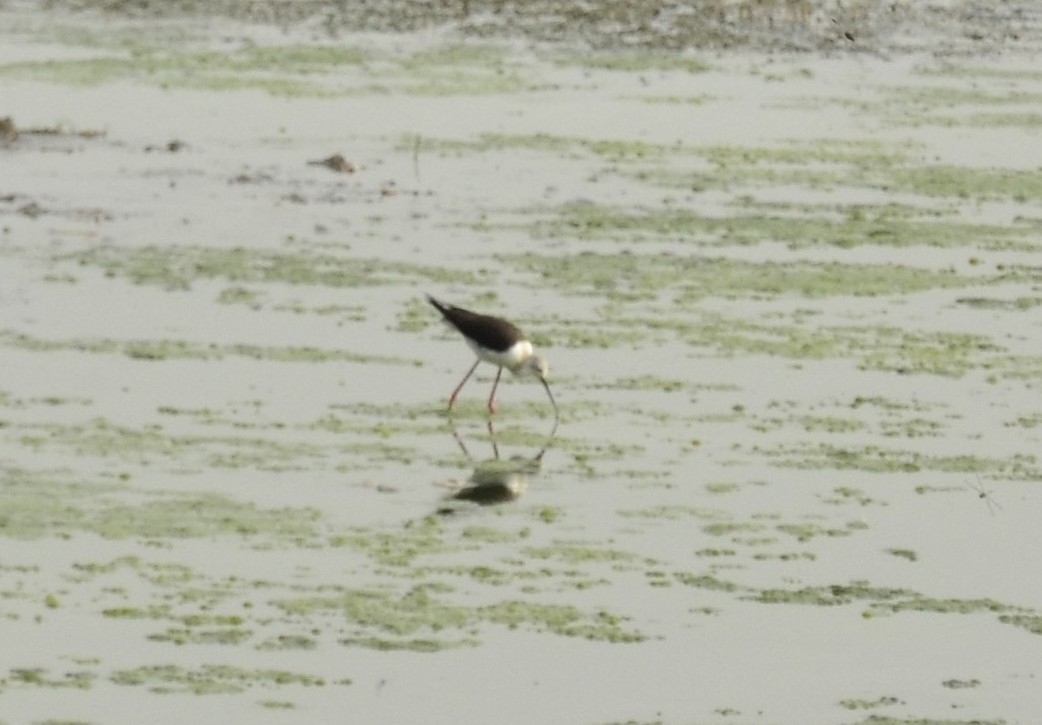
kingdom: Animalia
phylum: Chordata
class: Aves
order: Charadriiformes
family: Recurvirostridae
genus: Himantopus
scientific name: Himantopus himantopus
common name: Black-winged stilt
